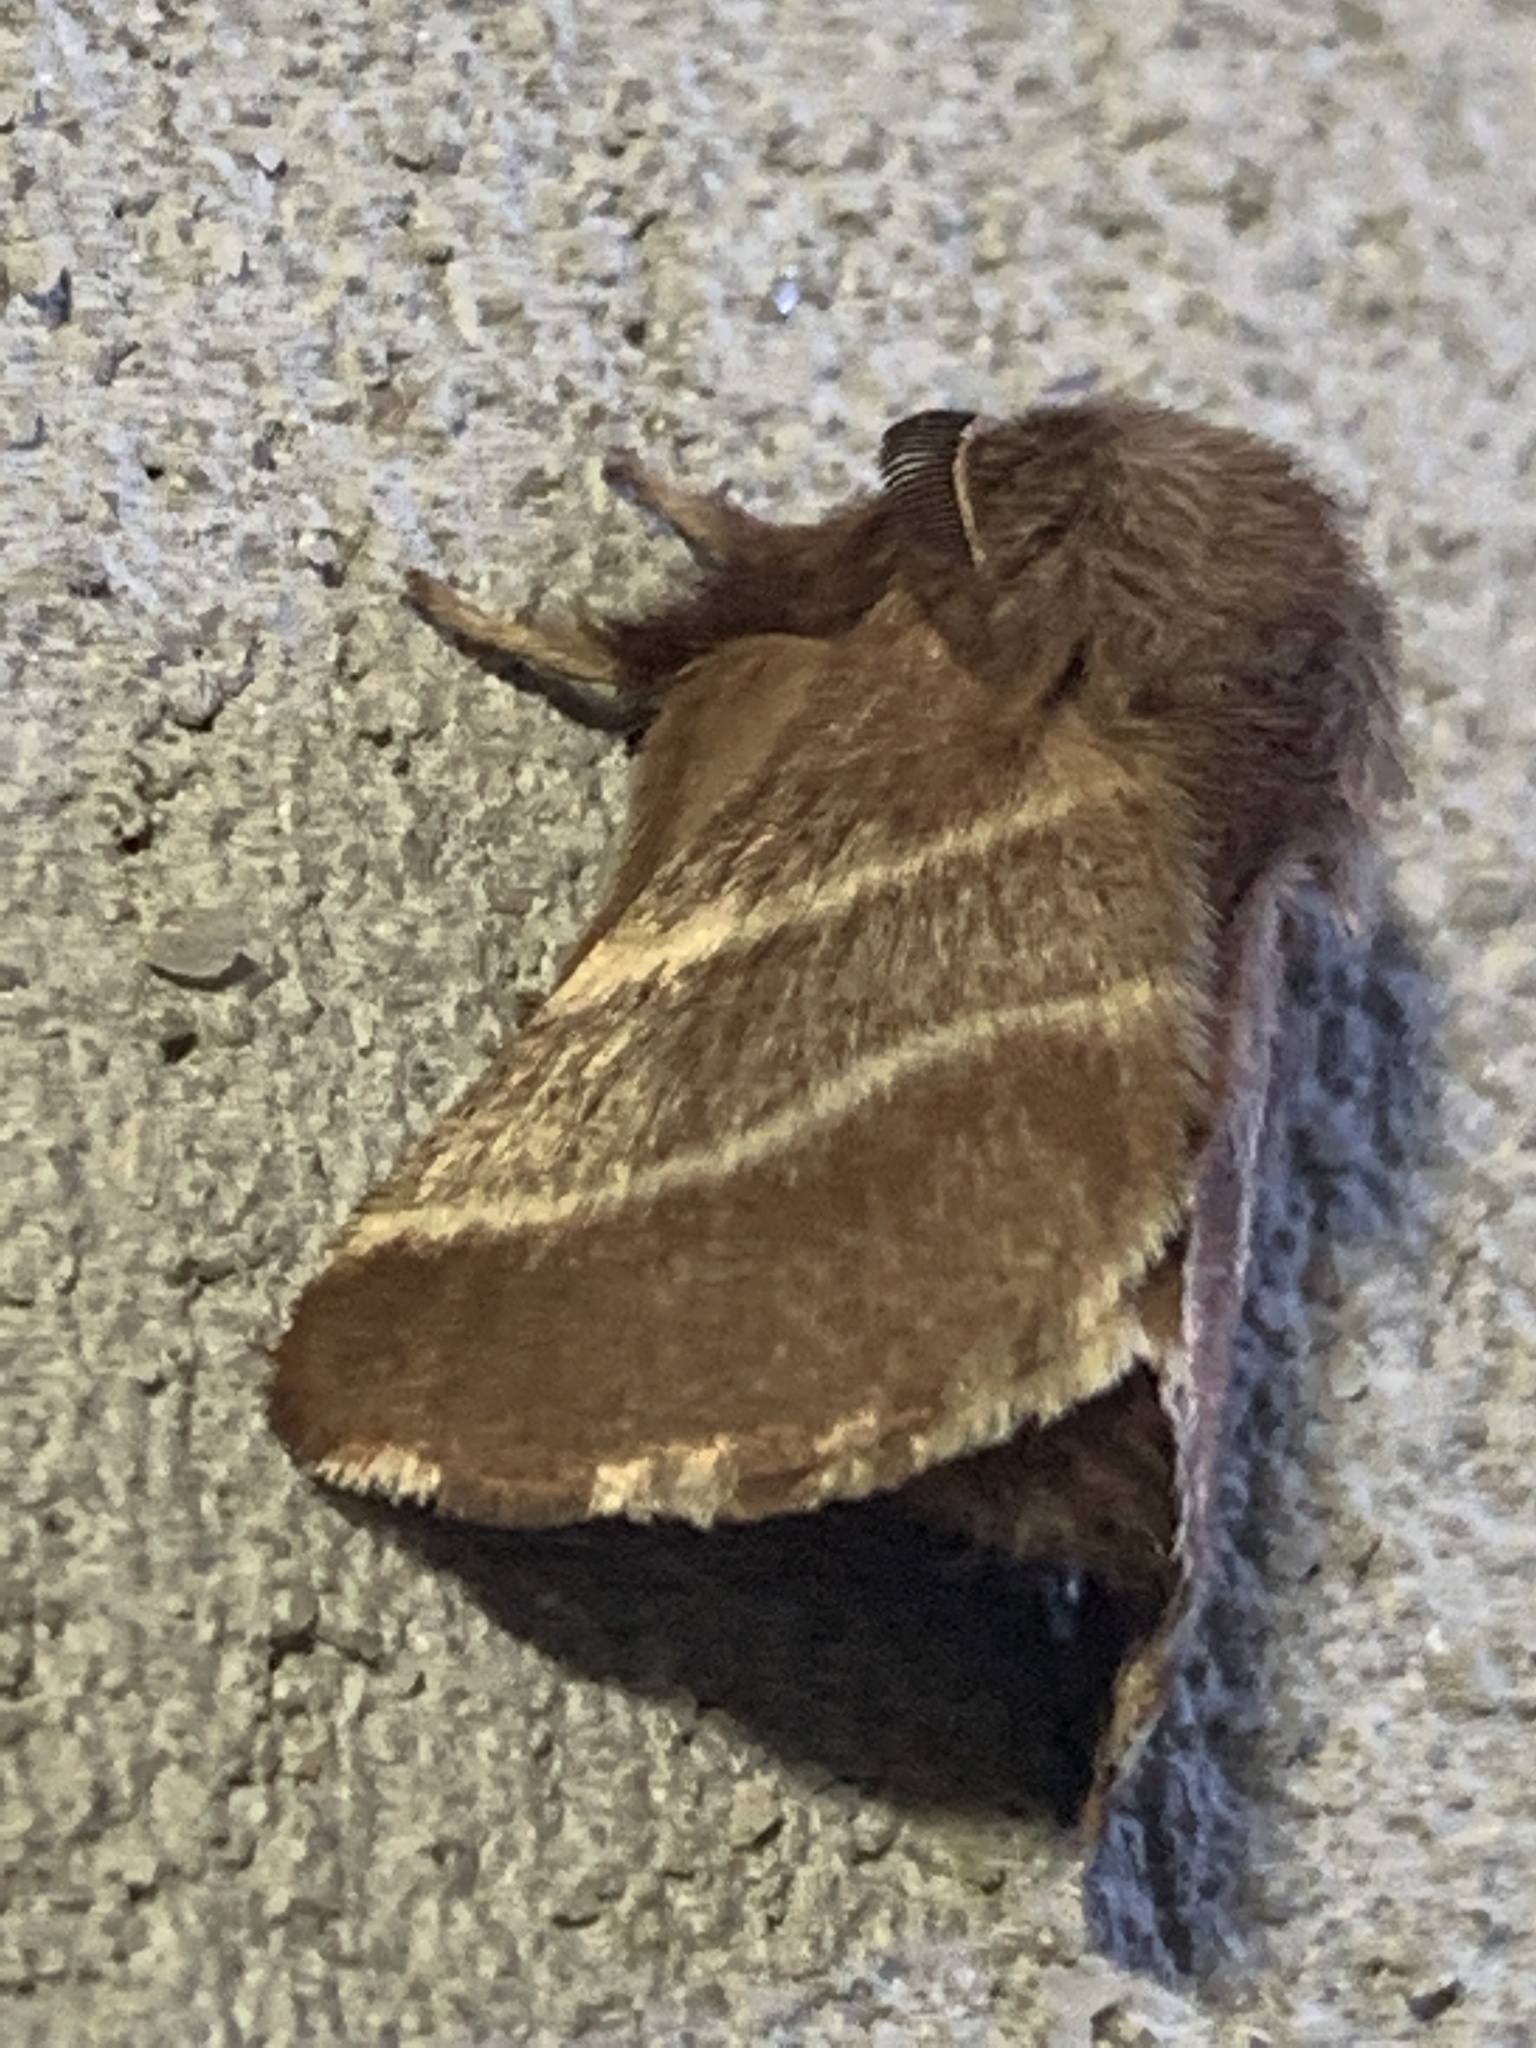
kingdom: Animalia
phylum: Arthropoda
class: Insecta
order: Lepidoptera
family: Lasiocampidae
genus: Malacosoma
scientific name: Malacosoma americana
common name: Eastern tent caterpillar moth
